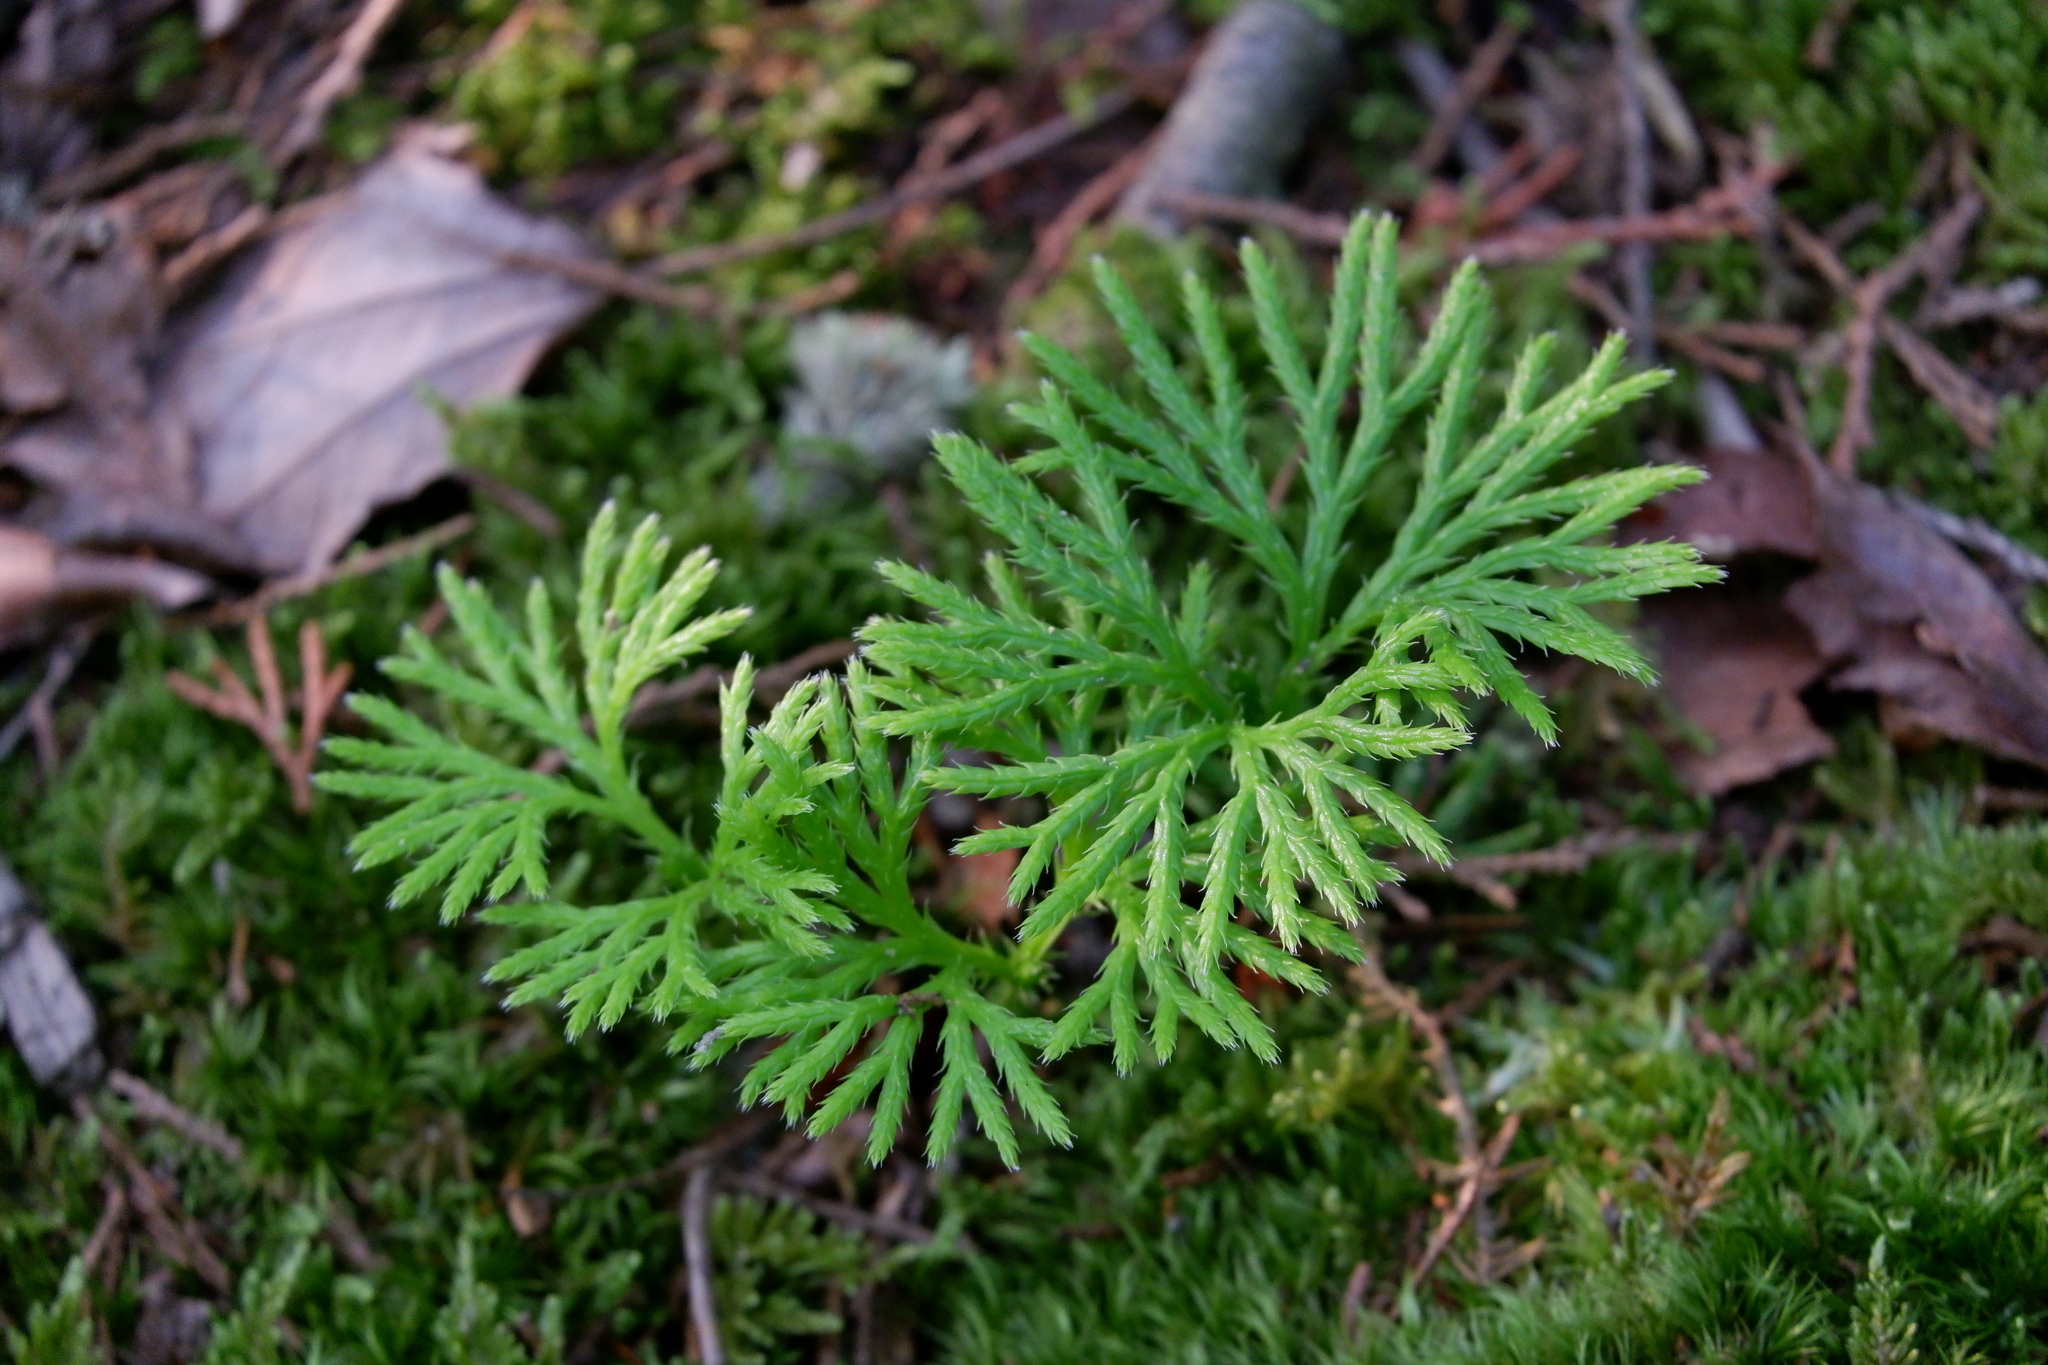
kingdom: Plantae
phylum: Tracheophyta
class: Lycopodiopsida
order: Lycopodiales
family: Lycopodiaceae
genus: Diphasiastrum
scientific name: Diphasiastrum digitatum
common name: Southern running-pine
